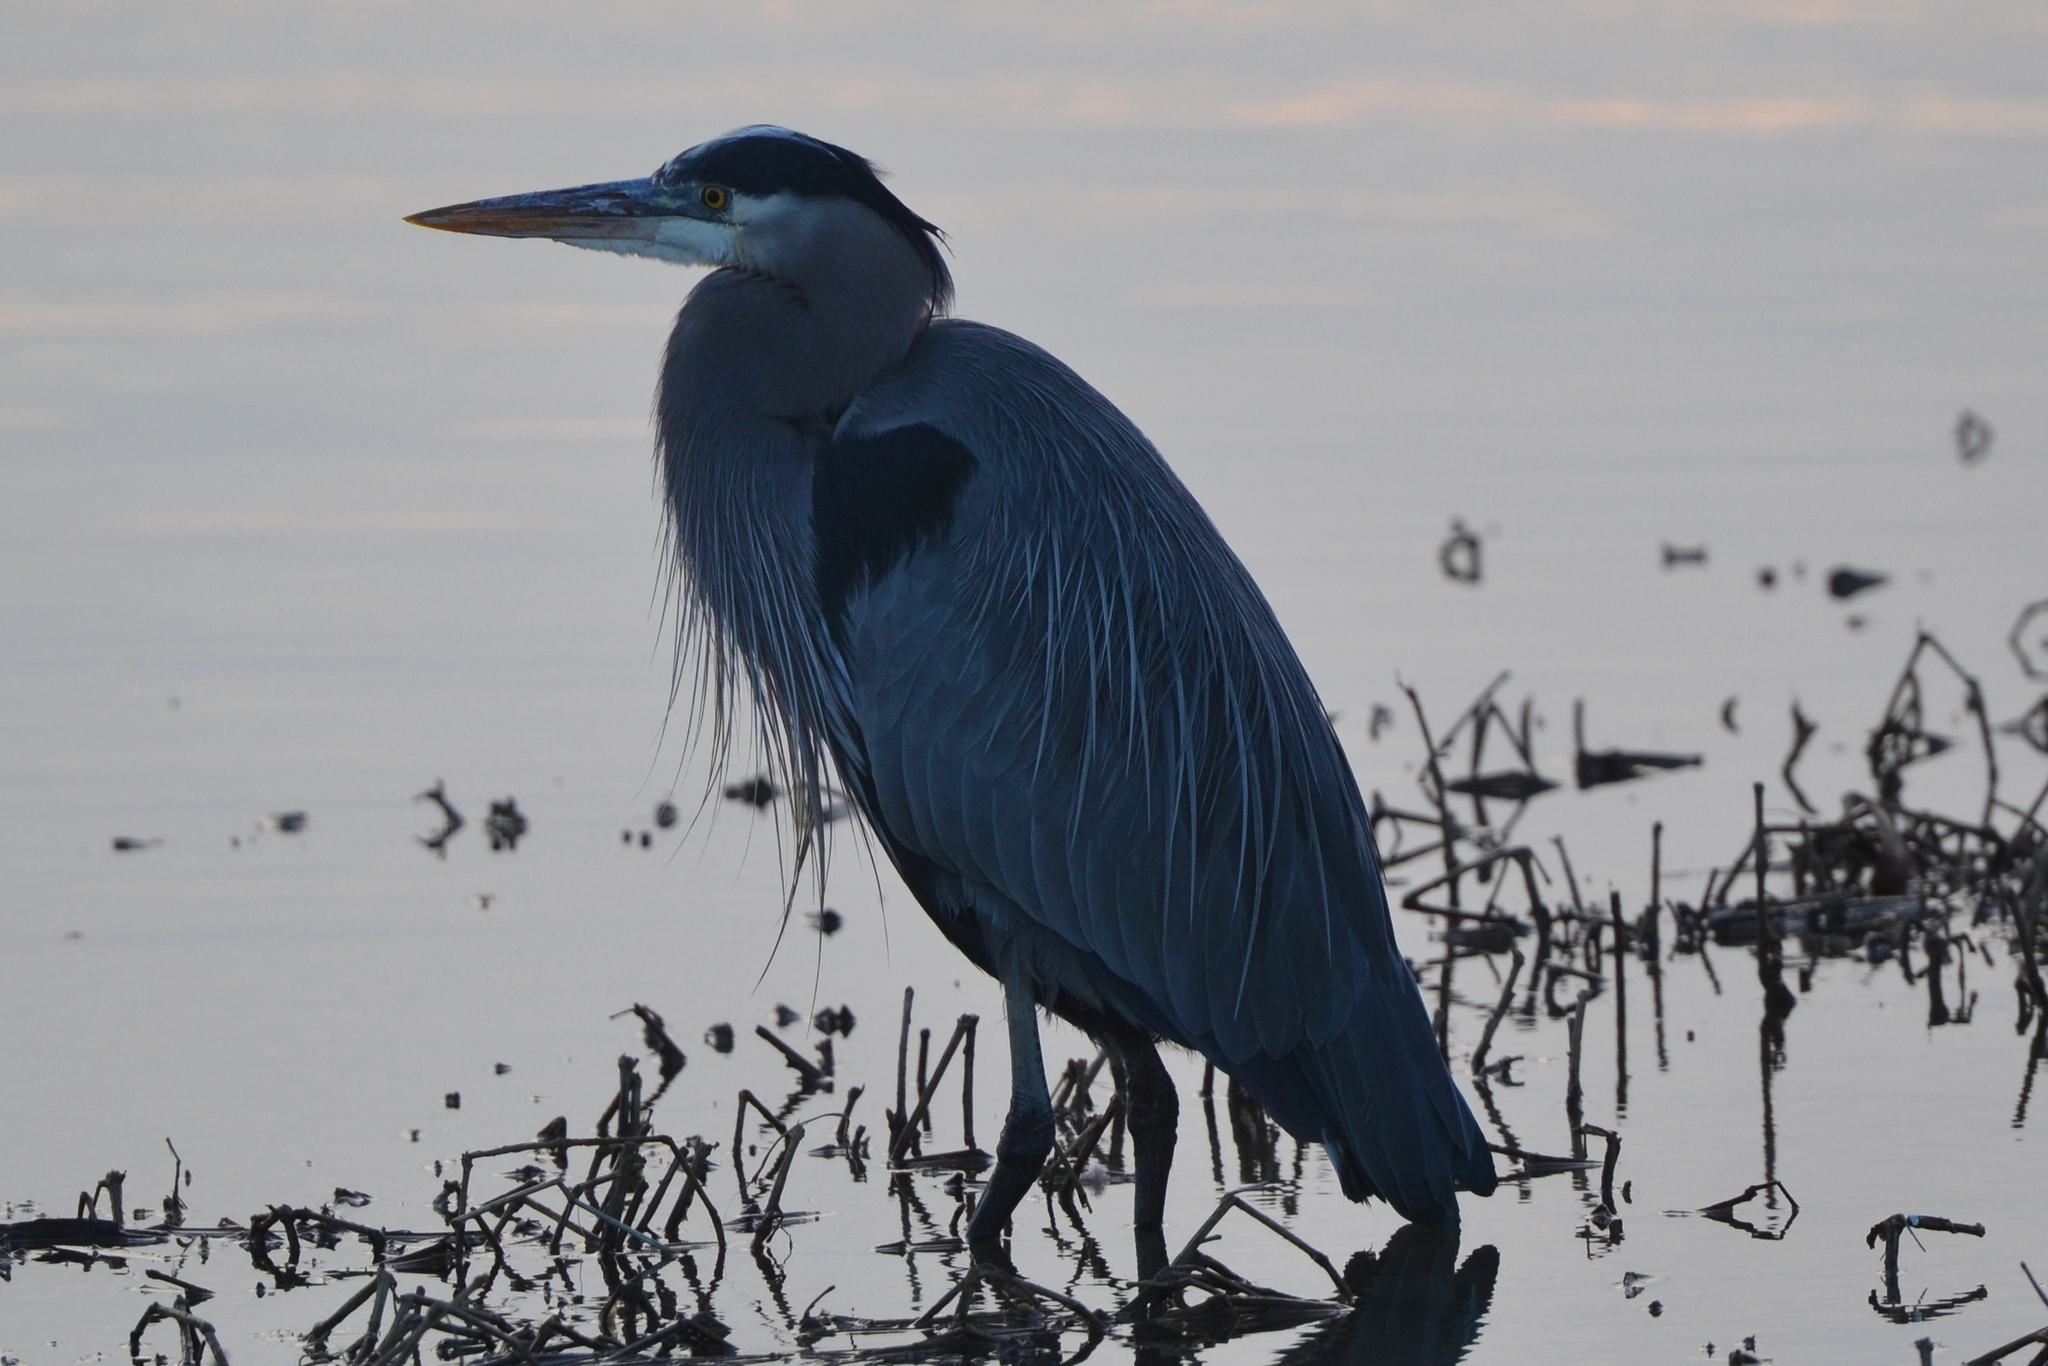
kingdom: Animalia
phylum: Chordata
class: Aves
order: Pelecaniformes
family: Ardeidae
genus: Ardea
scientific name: Ardea herodias
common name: Great blue heron
